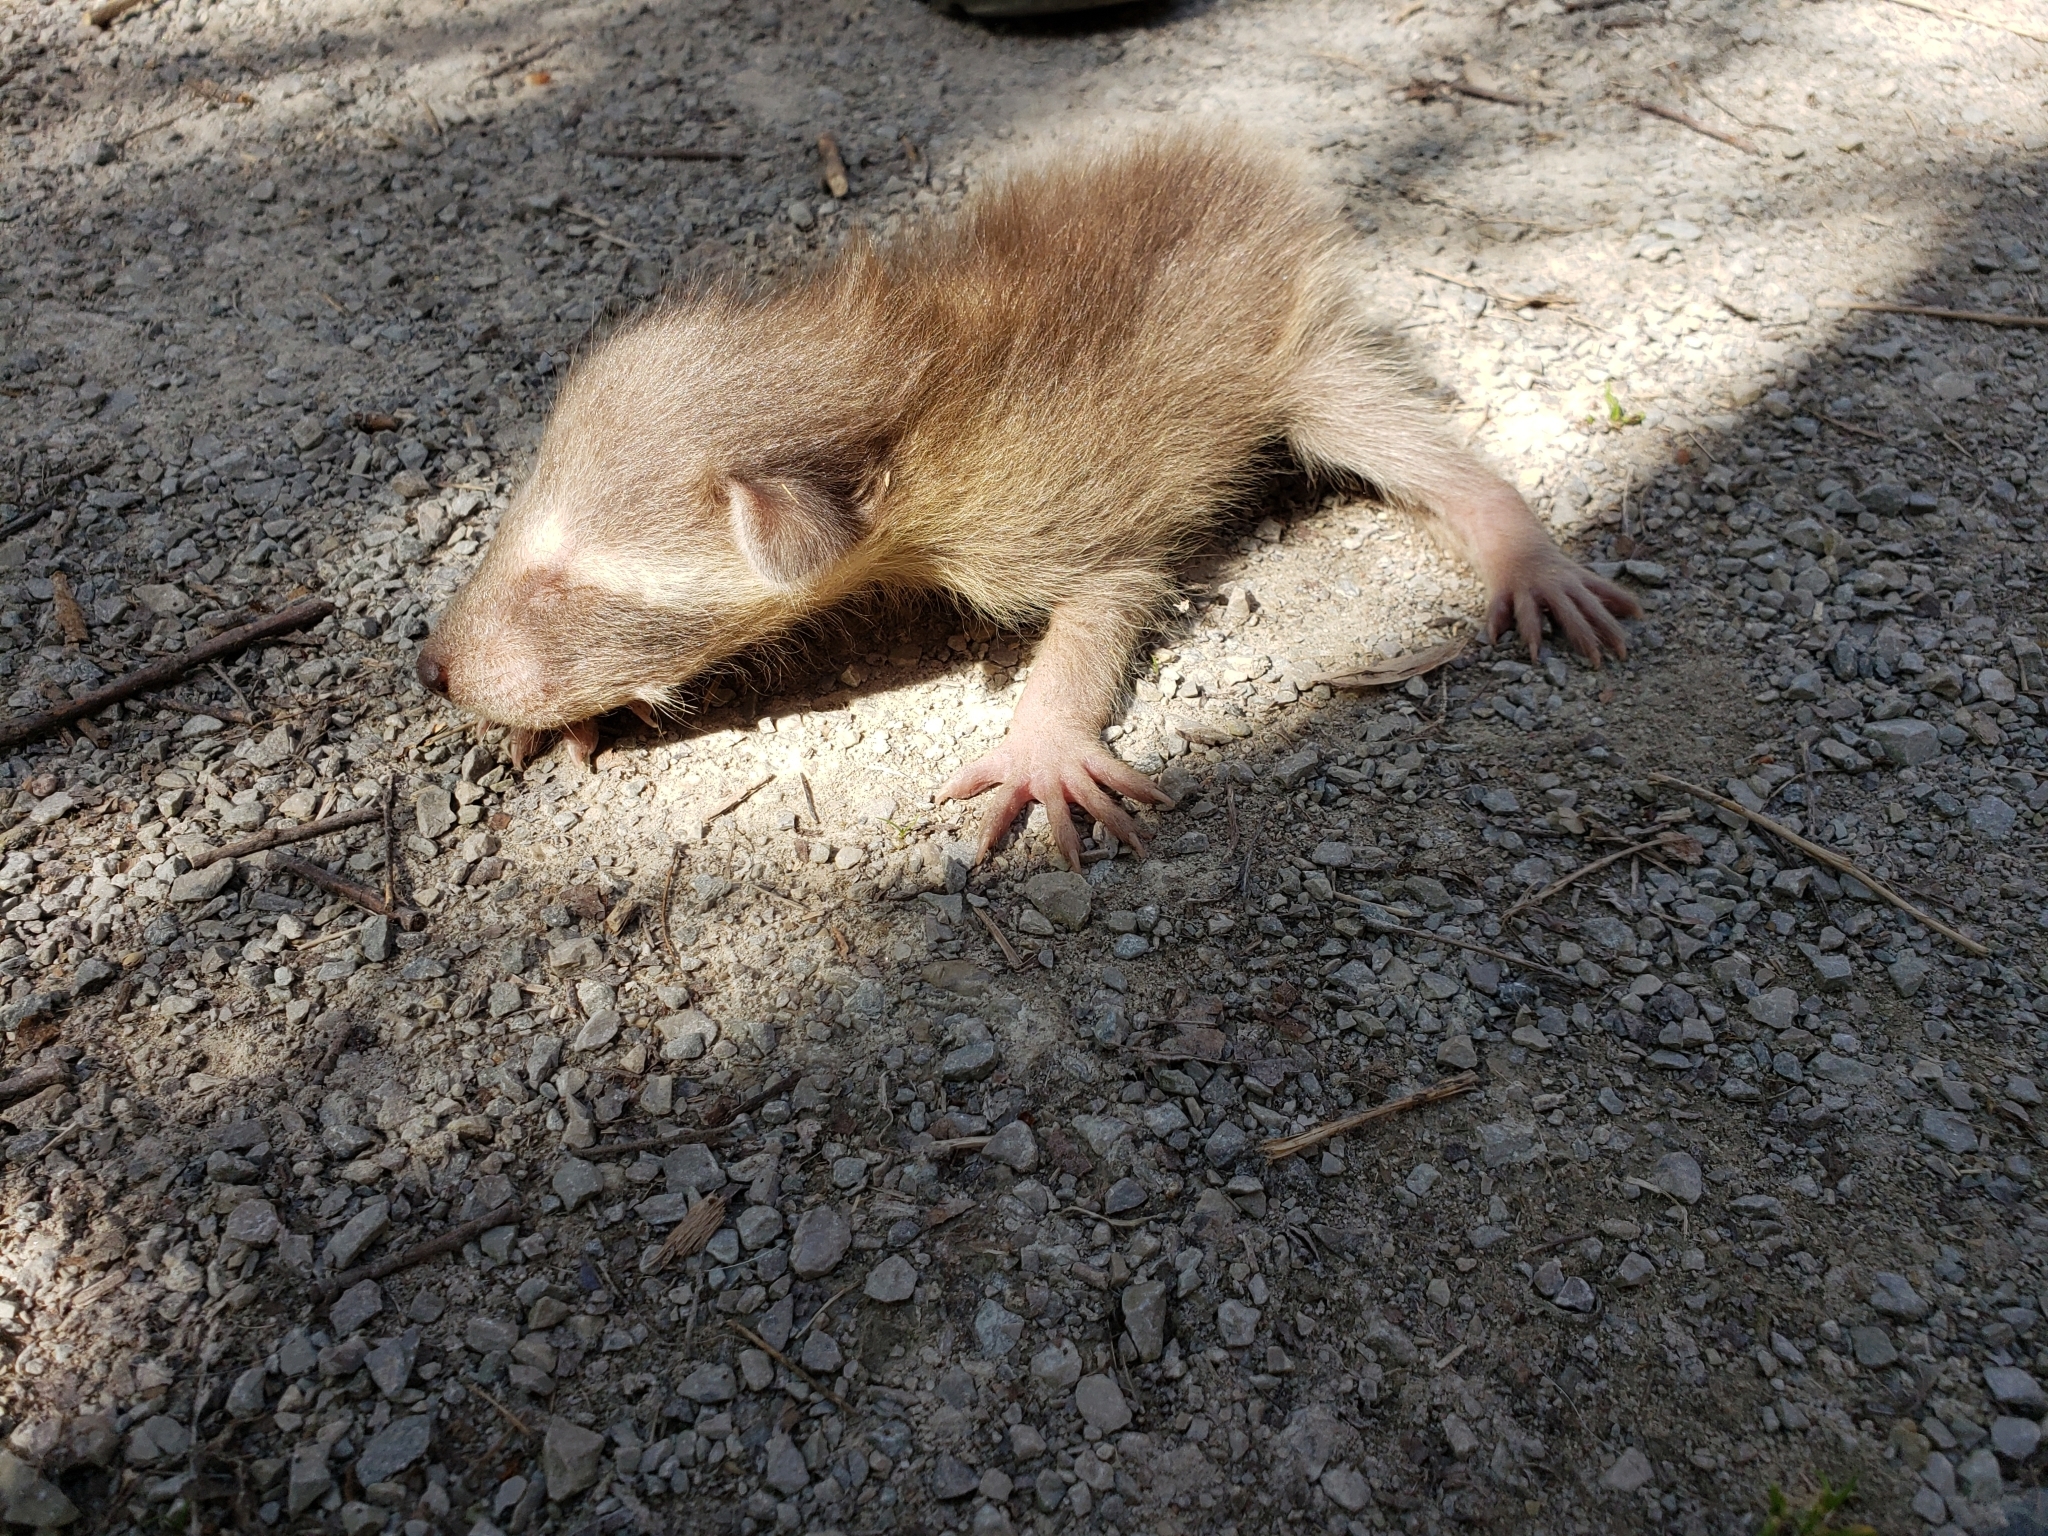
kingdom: Animalia
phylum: Chordata
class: Mammalia
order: Carnivora
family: Procyonidae
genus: Procyon
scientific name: Procyon lotor
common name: Raccoon
